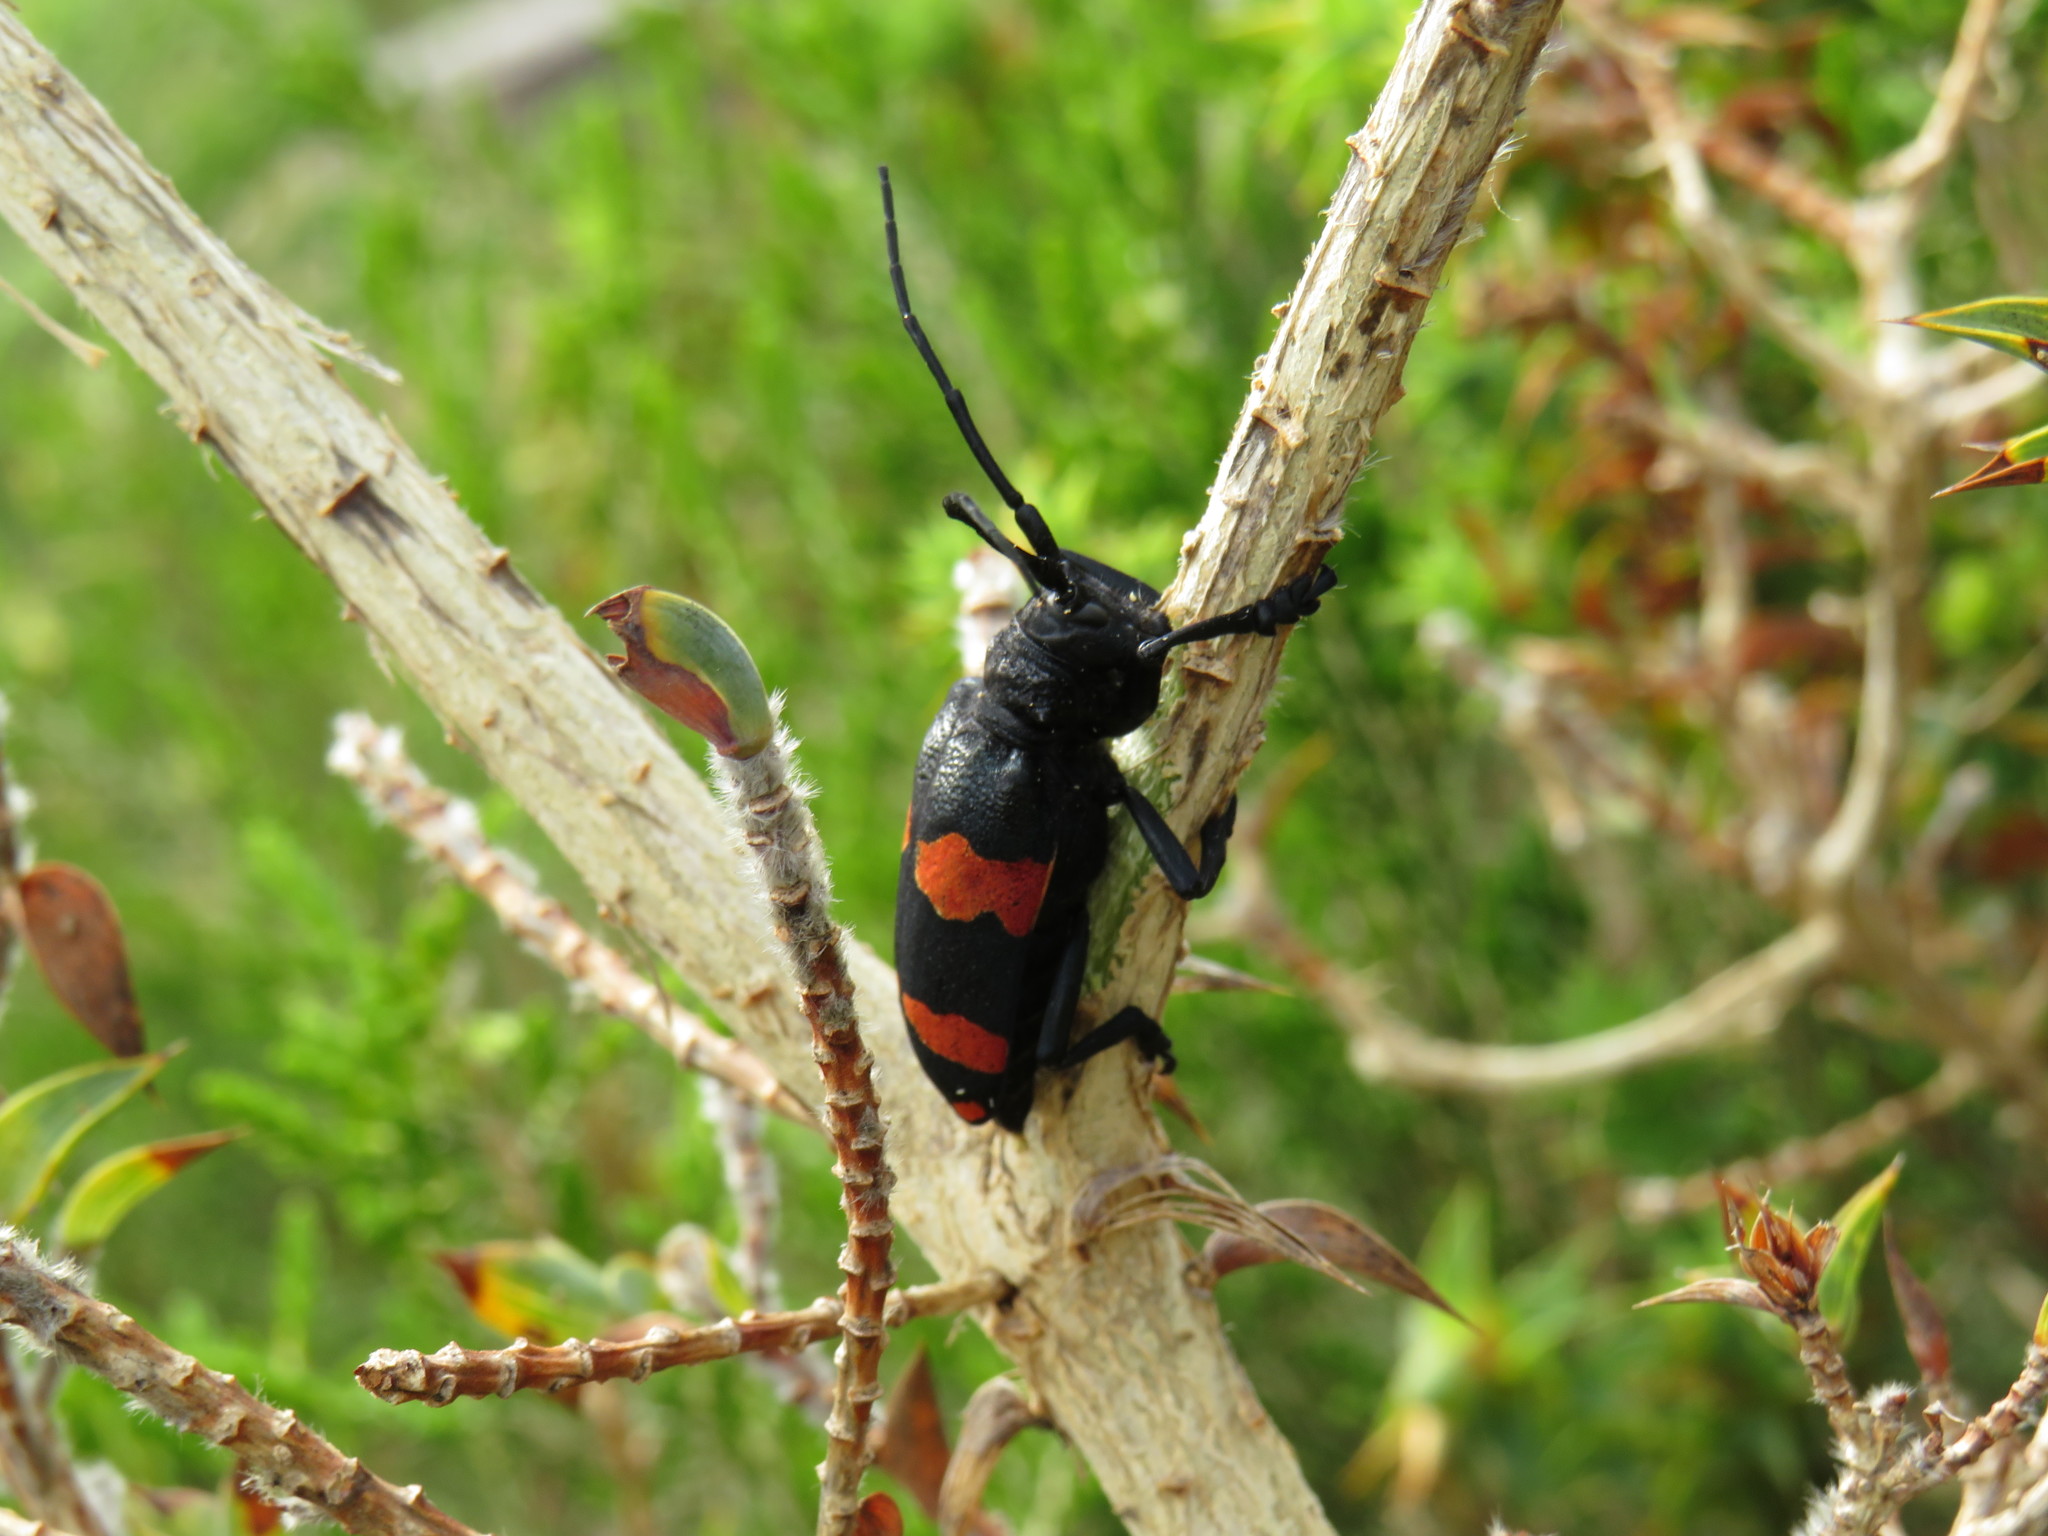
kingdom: Animalia
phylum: Arthropoda
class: Insecta
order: Coleoptera
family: Cerambycidae
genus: Ceroplesis
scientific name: Ceroplesis aethiops
